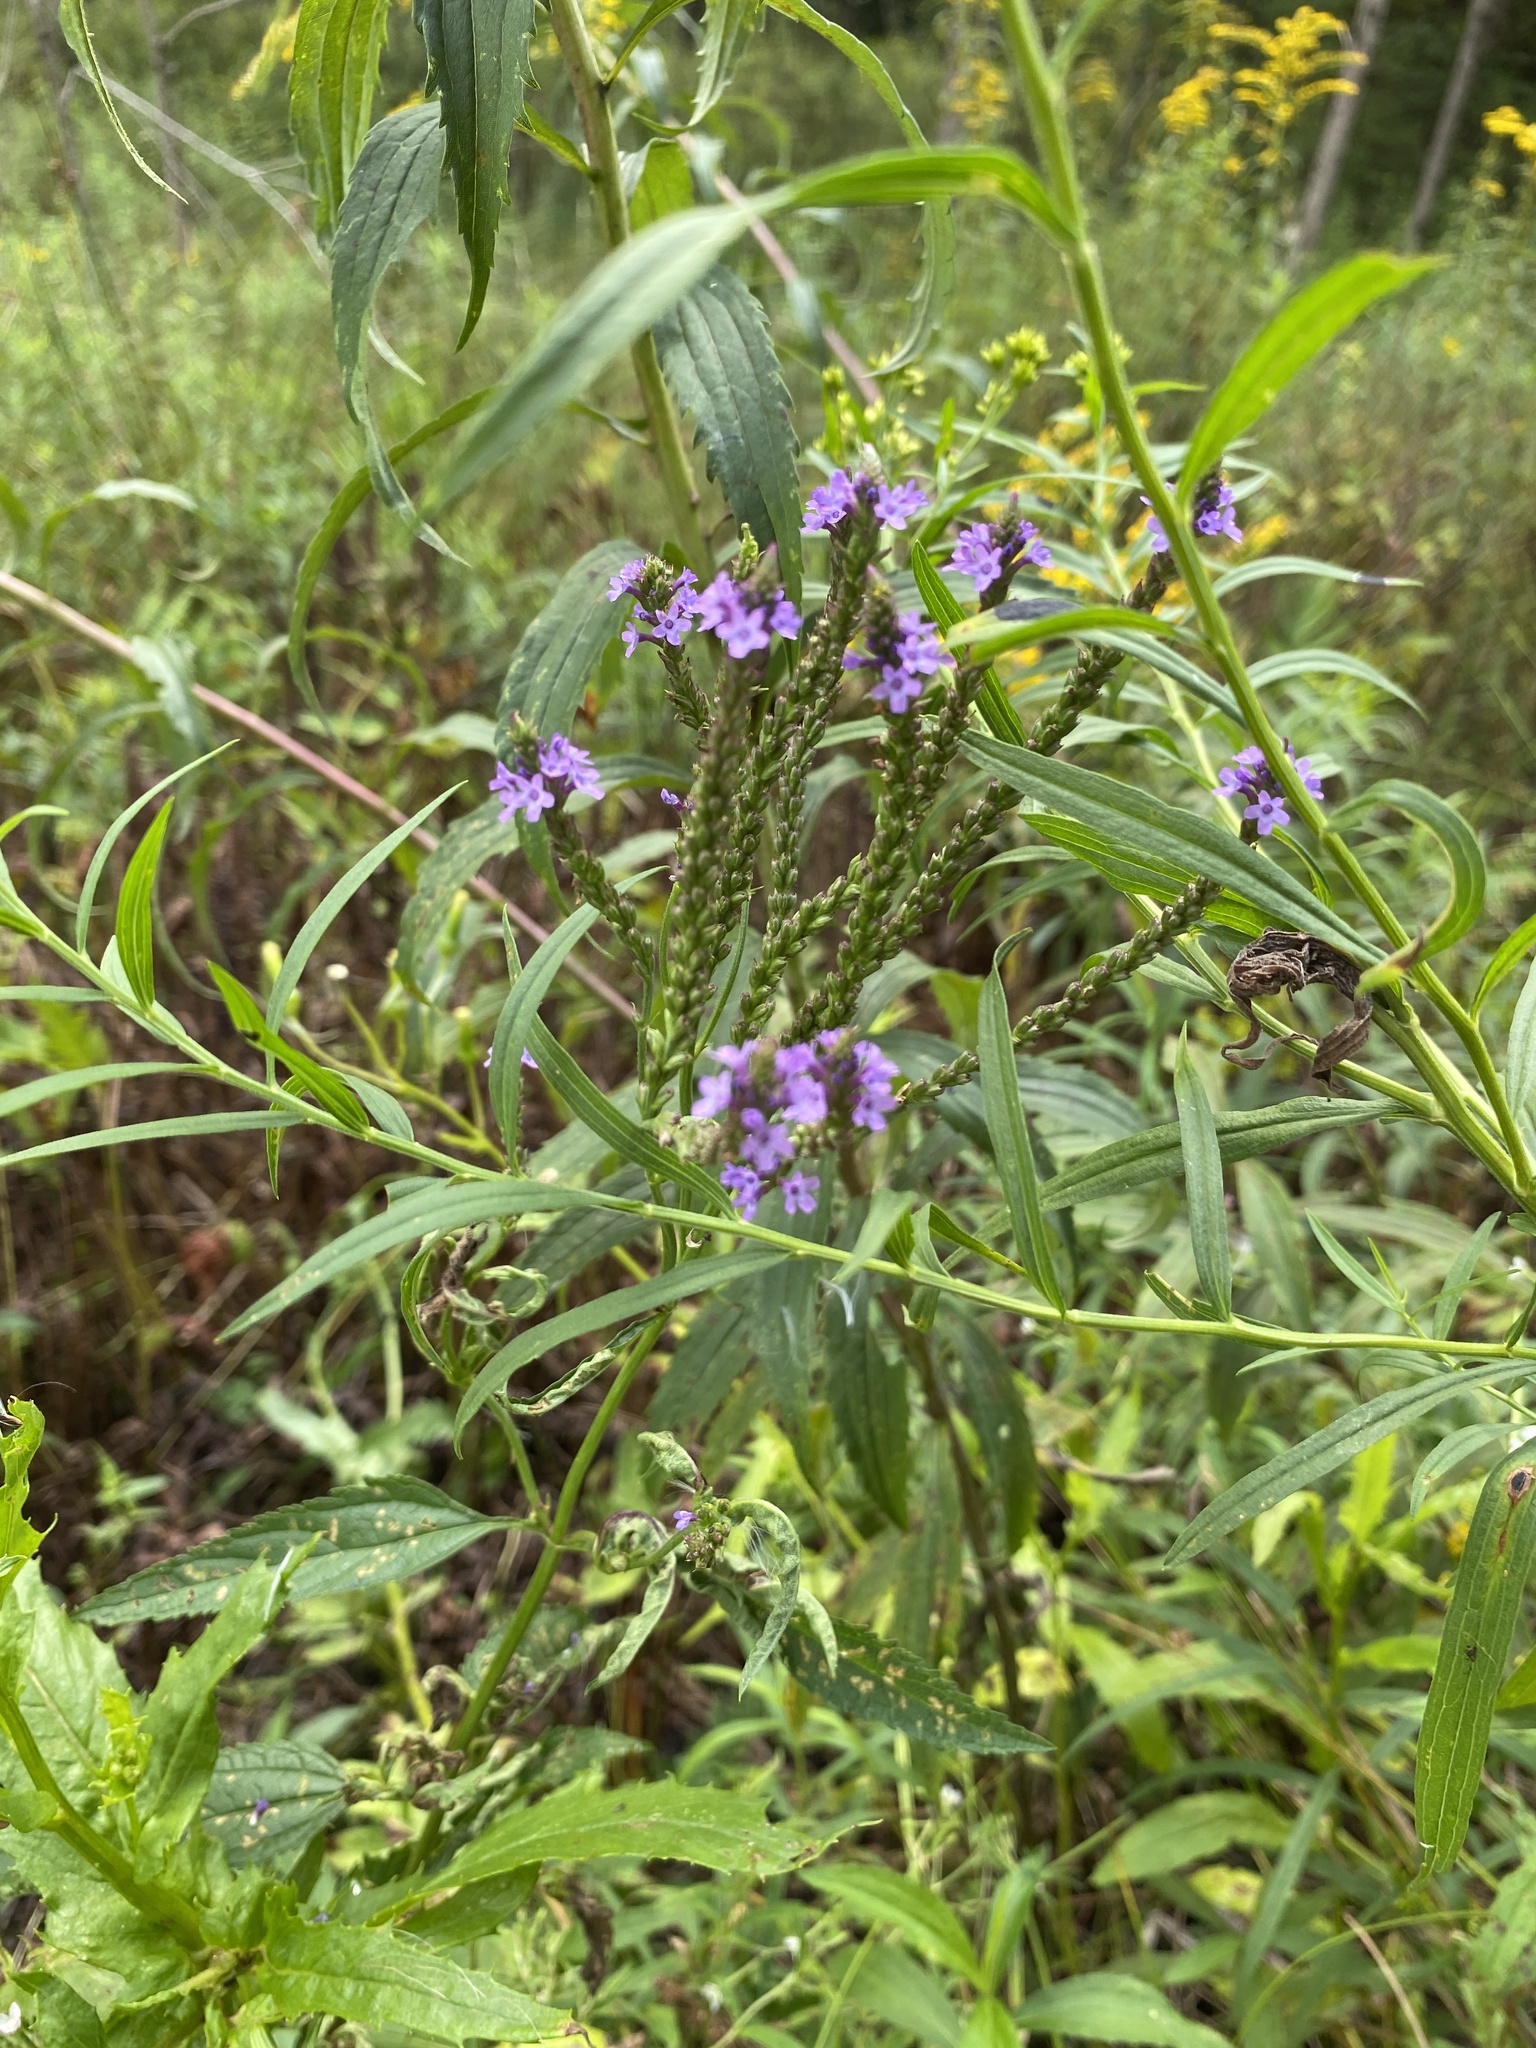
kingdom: Plantae
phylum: Tracheophyta
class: Magnoliopsida
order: Lamiales
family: Verbenaceae
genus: Verbena
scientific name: Verbena hastata
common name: American blue vervain
